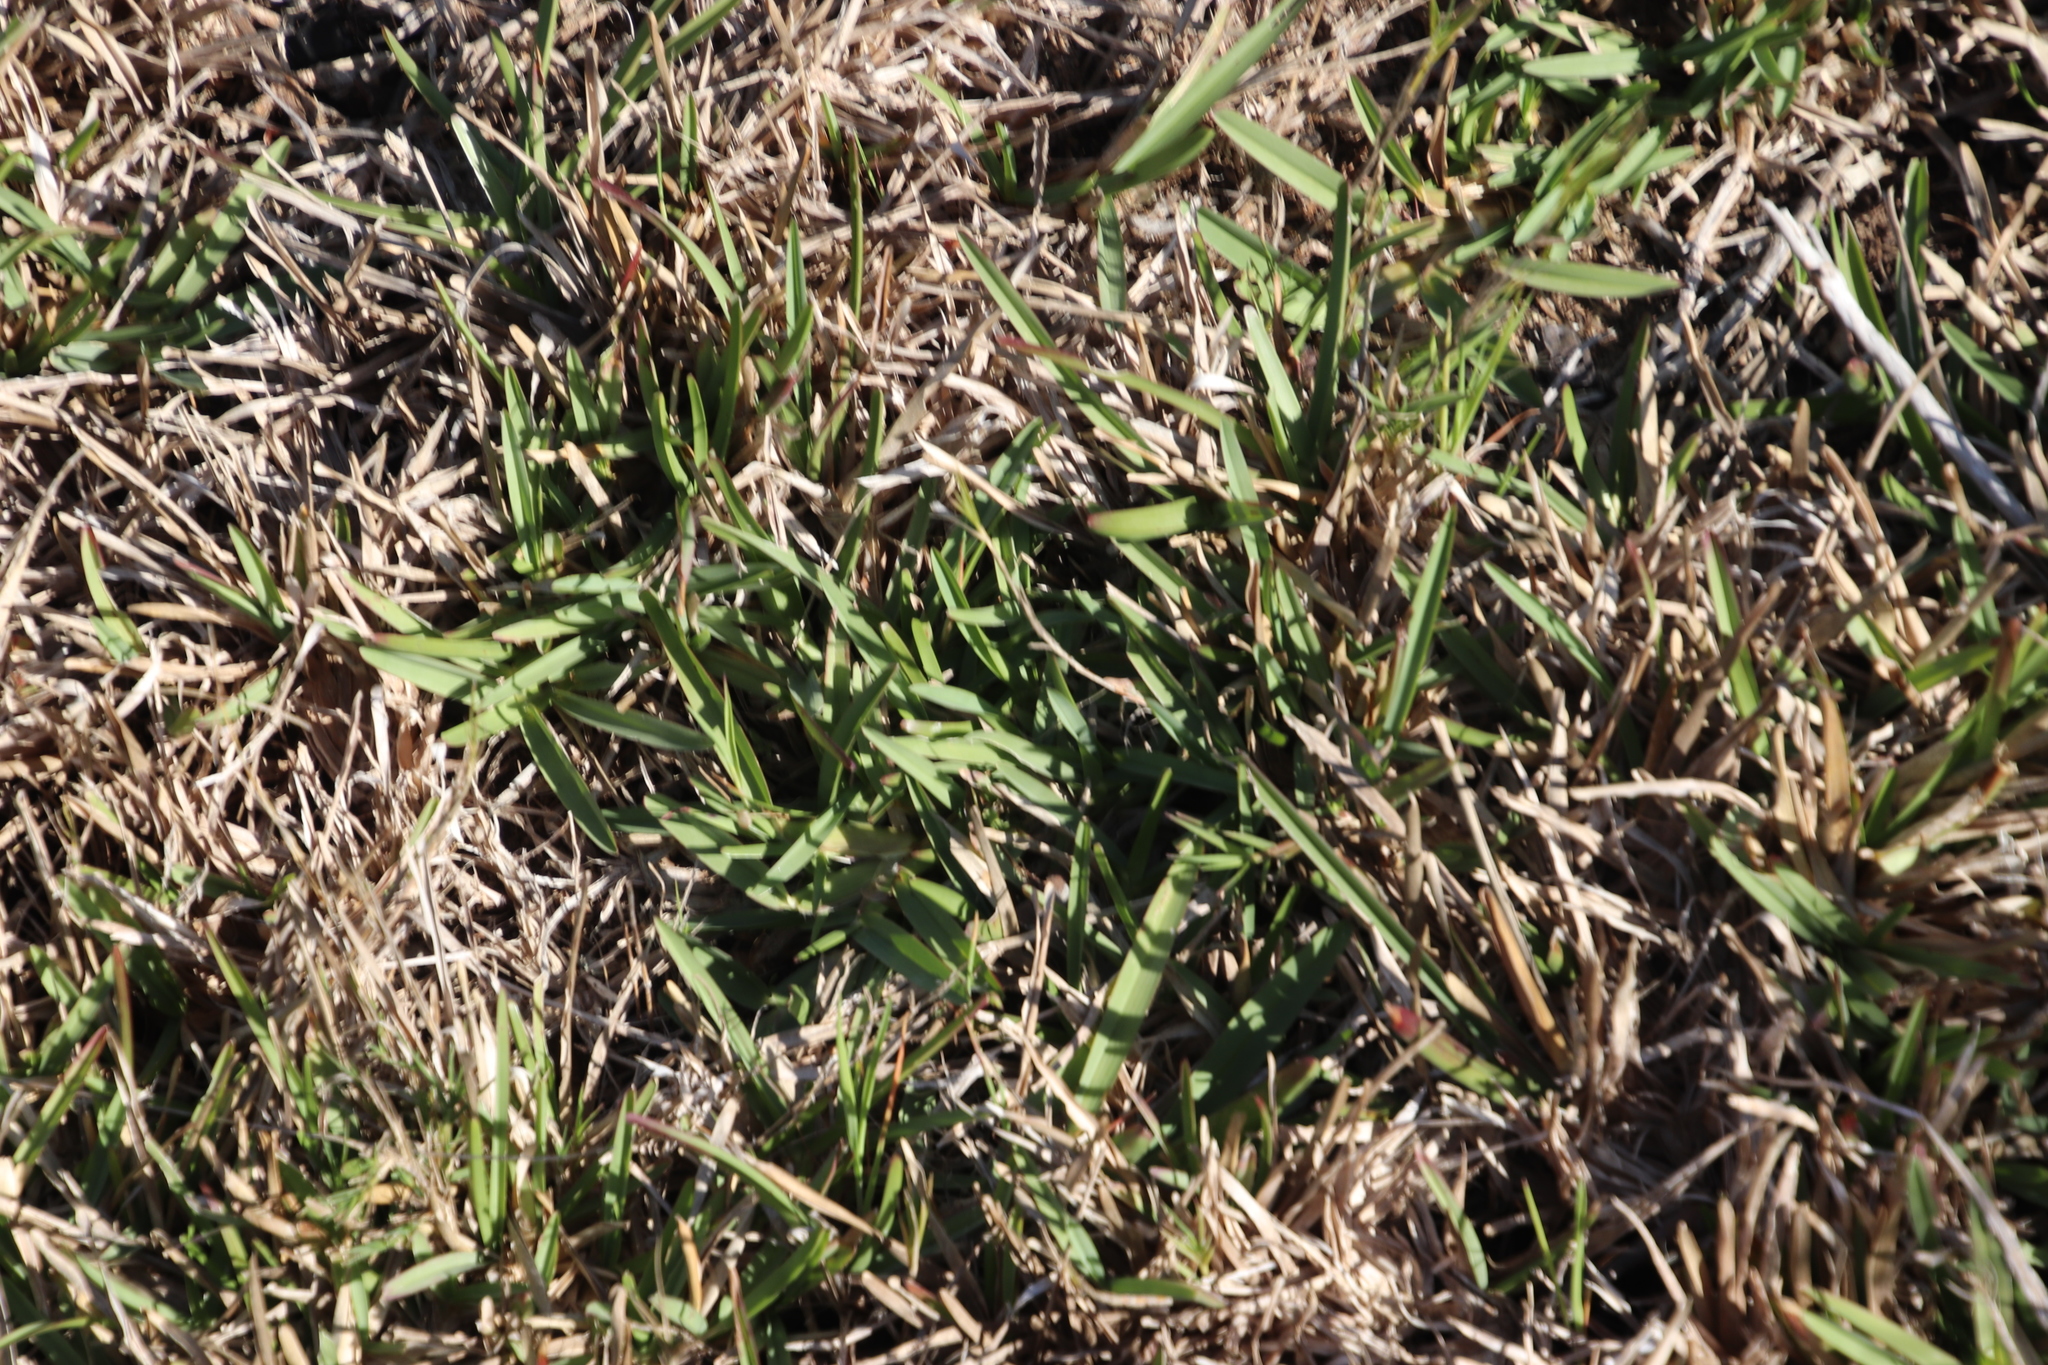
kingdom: Plantae
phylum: Tracheophyta
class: Liliopsida
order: Poales
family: Poaceae
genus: Stenotaphrum
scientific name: Stenotaphrum secundatum
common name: St. augustine grass
